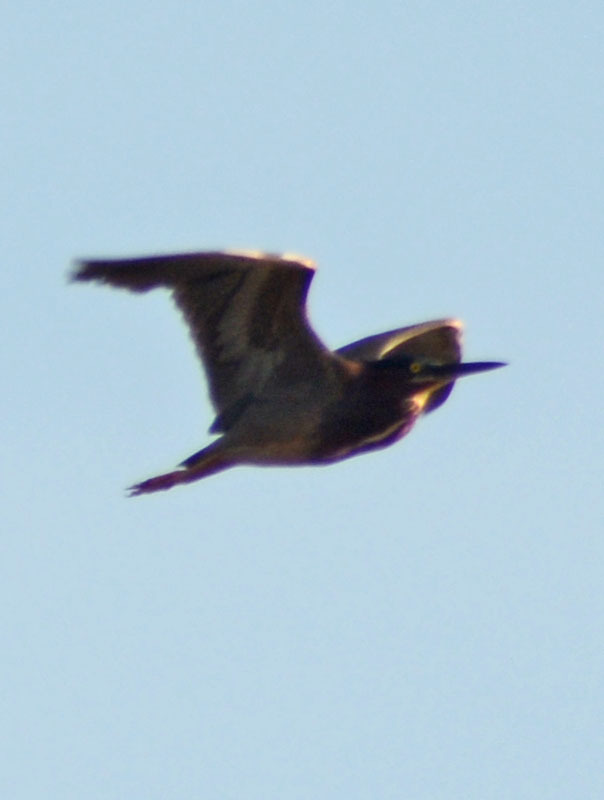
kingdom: Animalia
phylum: Chordata
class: Aves
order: Pelecaniformes
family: Ardeidae
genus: Butorides
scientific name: Butorides virescens
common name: Green heron
